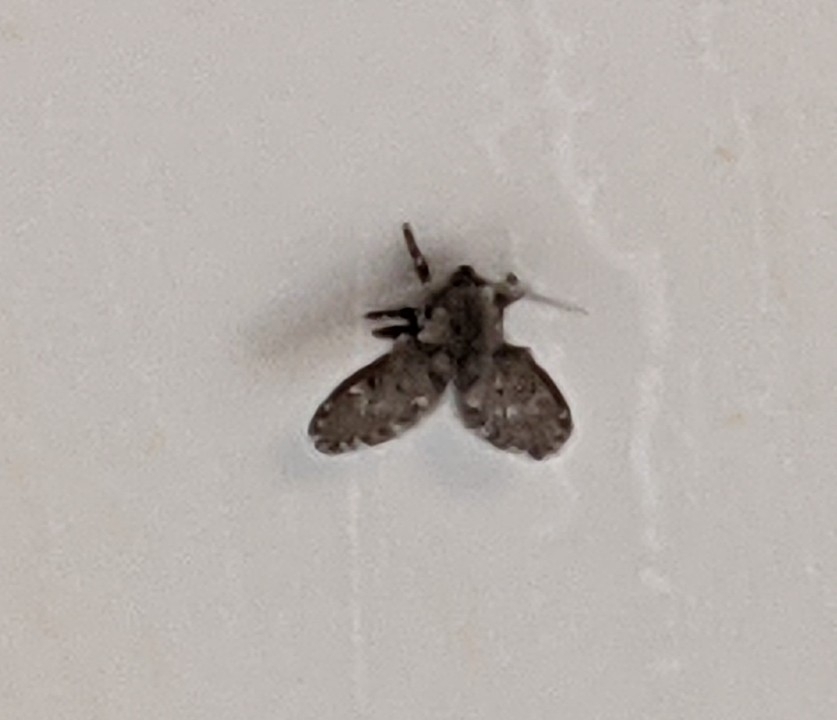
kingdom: Animalia
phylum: Arthropoda
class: Insecta
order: Diptera
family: Psychodidae
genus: Clogmia
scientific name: Clogmia albipunctatus
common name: White-spotted moth fly
